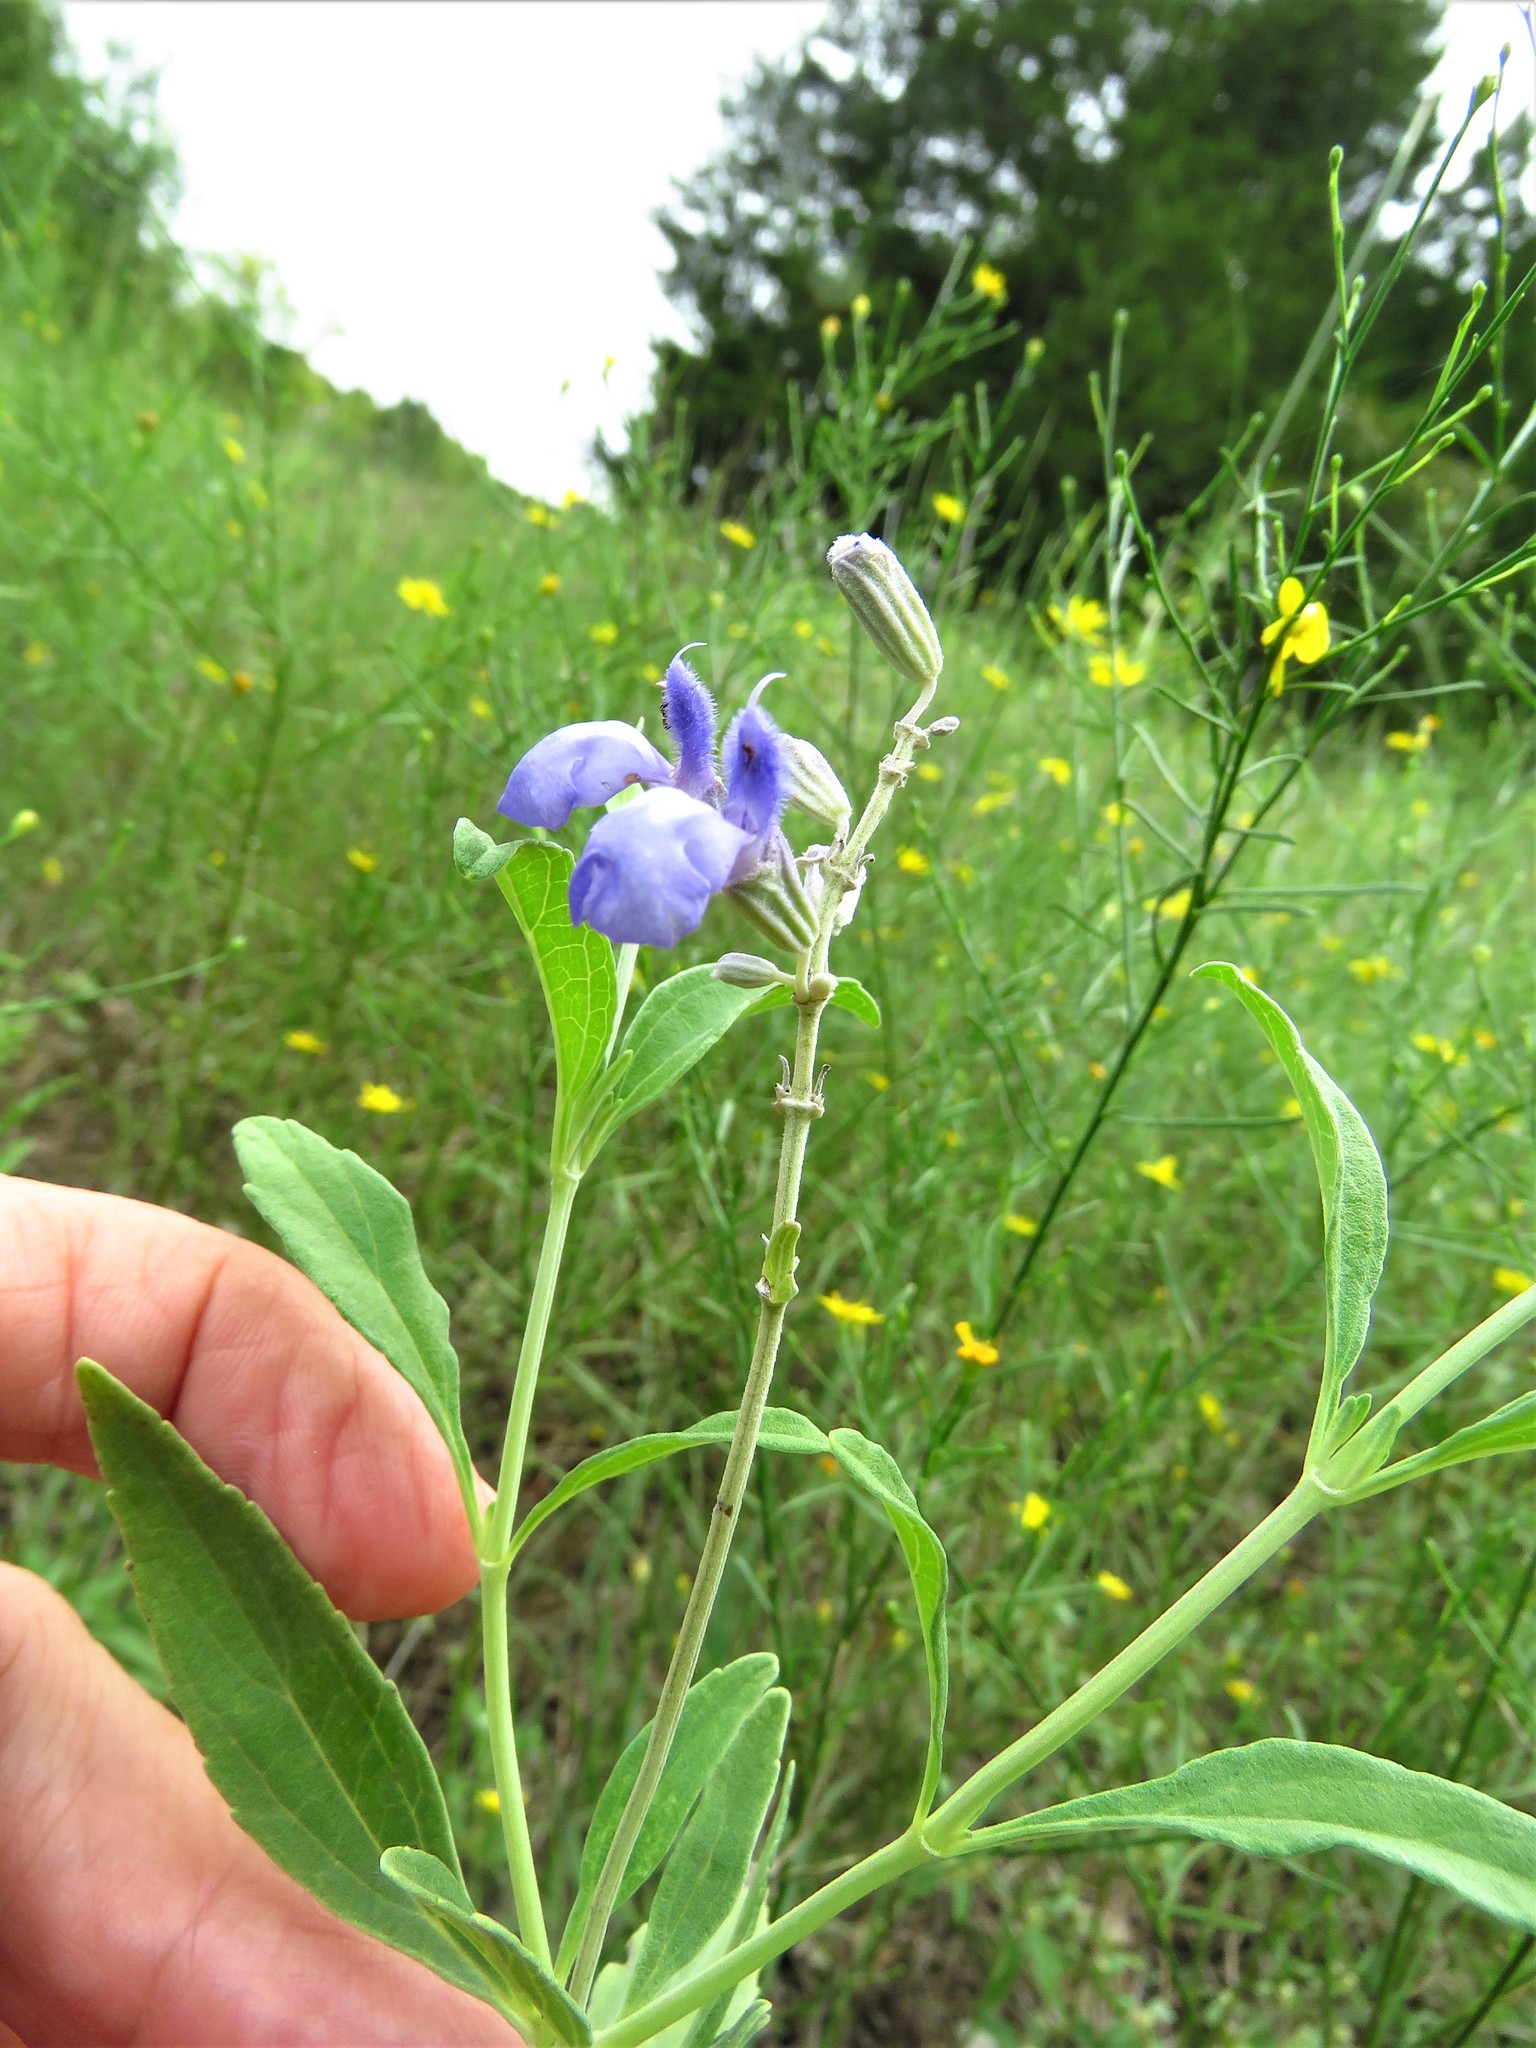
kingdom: Plantae
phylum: Tracheophyta
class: Magnoliopsida
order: Lamiales
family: Lamiaceae
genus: Salvia
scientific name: Salvia farinacea
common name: Mealy sage
